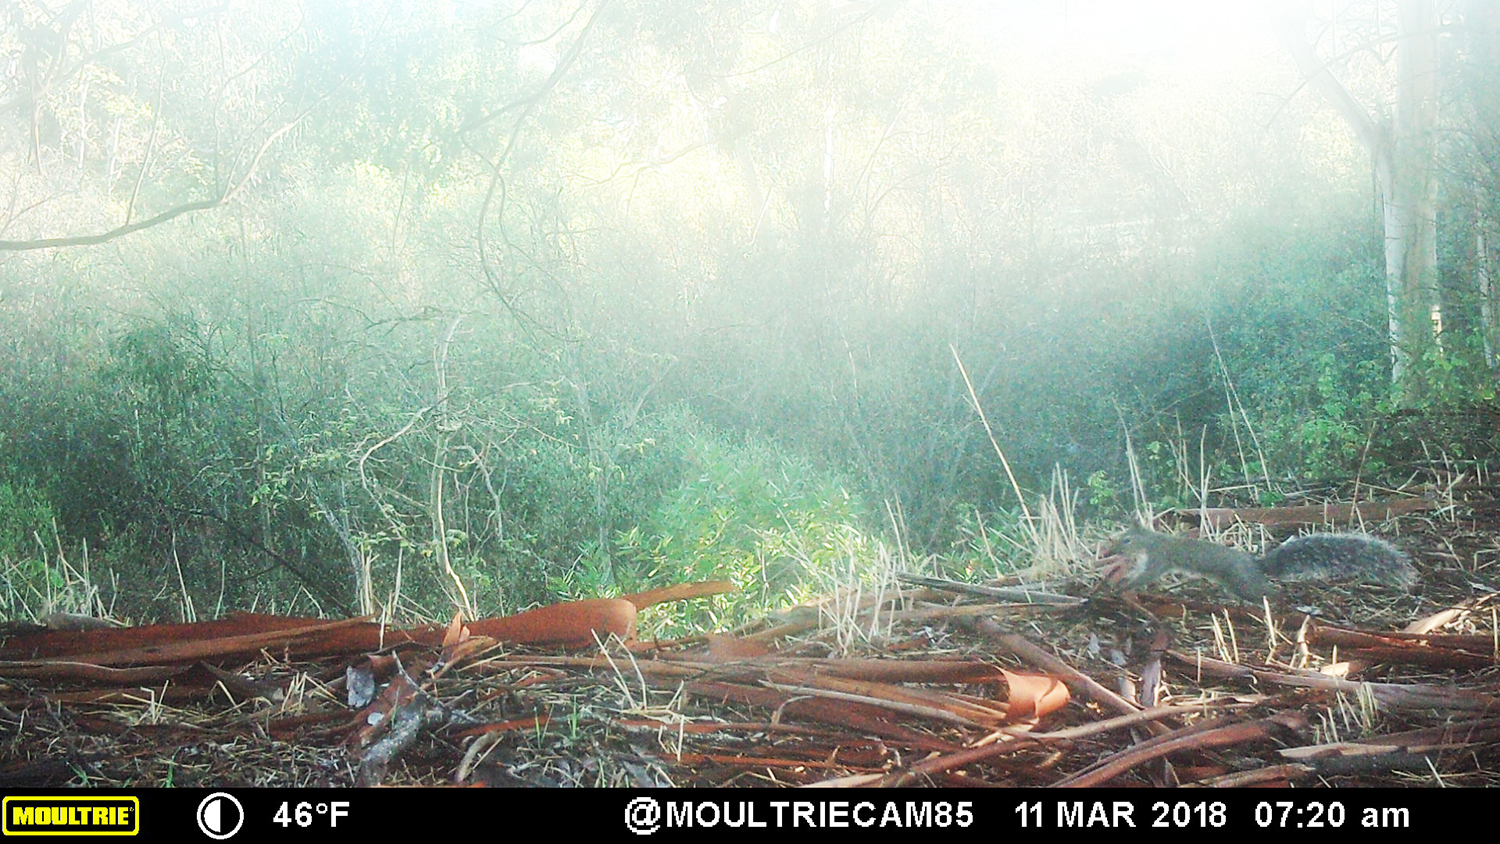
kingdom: Animalia
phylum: Chordata
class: Mammalia
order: Rodentia
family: Sciuridae
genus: Sciurus
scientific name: Sciurus griseus
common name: Western gray squirrel
